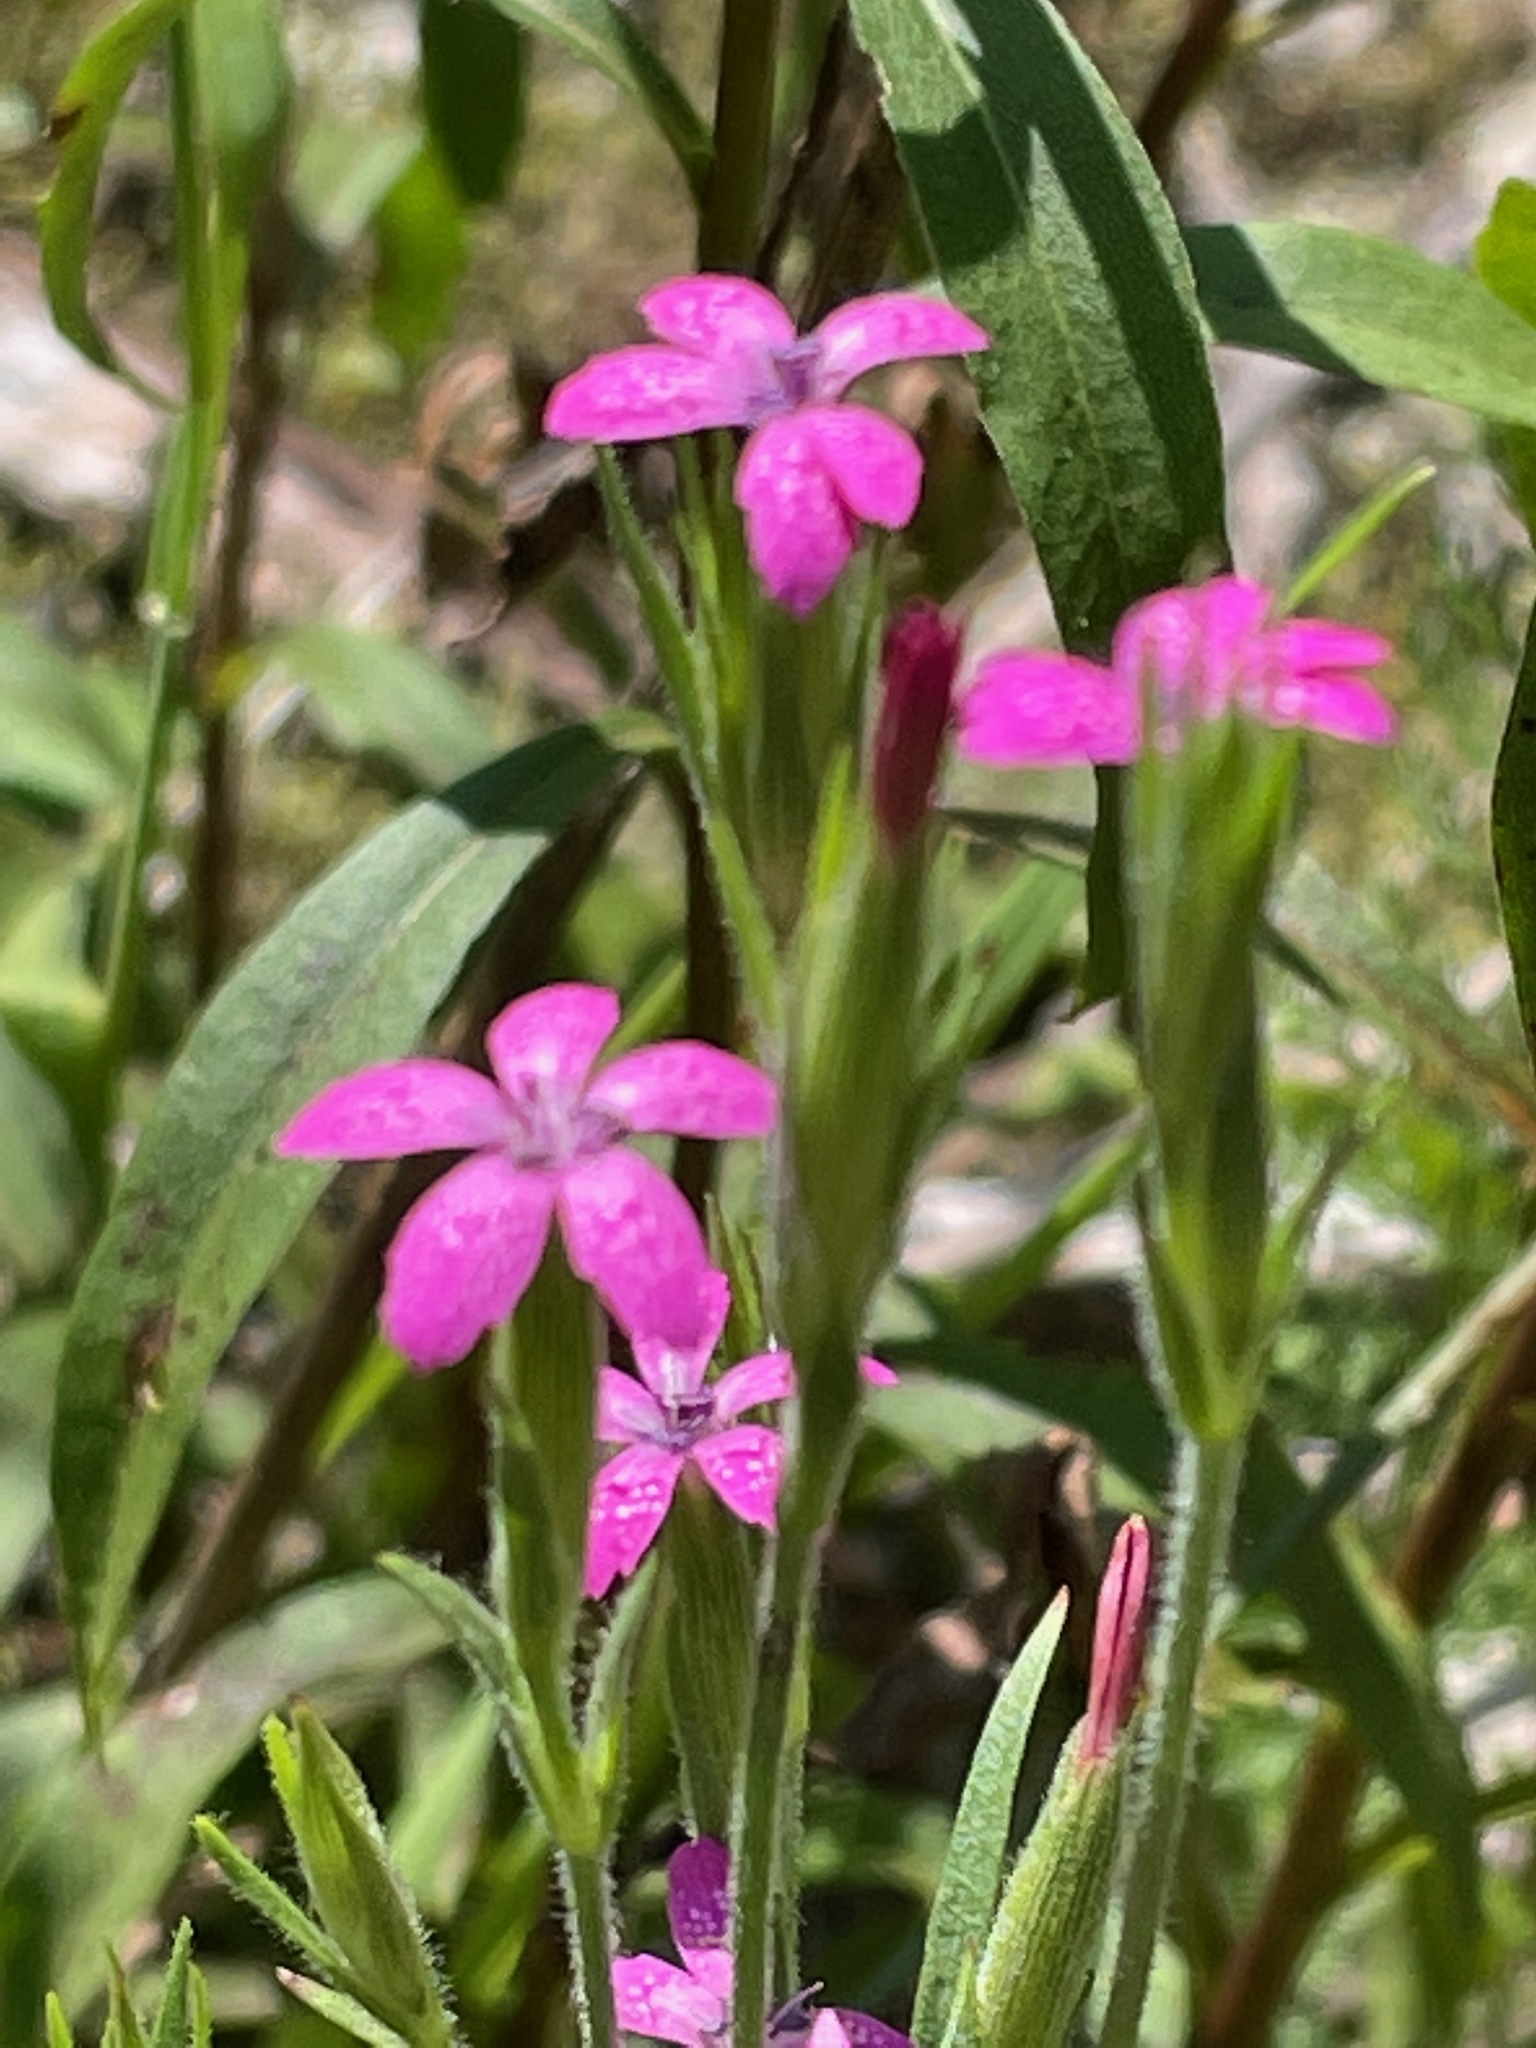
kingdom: Plantae
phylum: Tracheophyta
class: Magnoliopsida
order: Caryophyllales
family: Caryophyllaceae
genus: Dianthus
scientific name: Dianthus armeria
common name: Deptford pink
